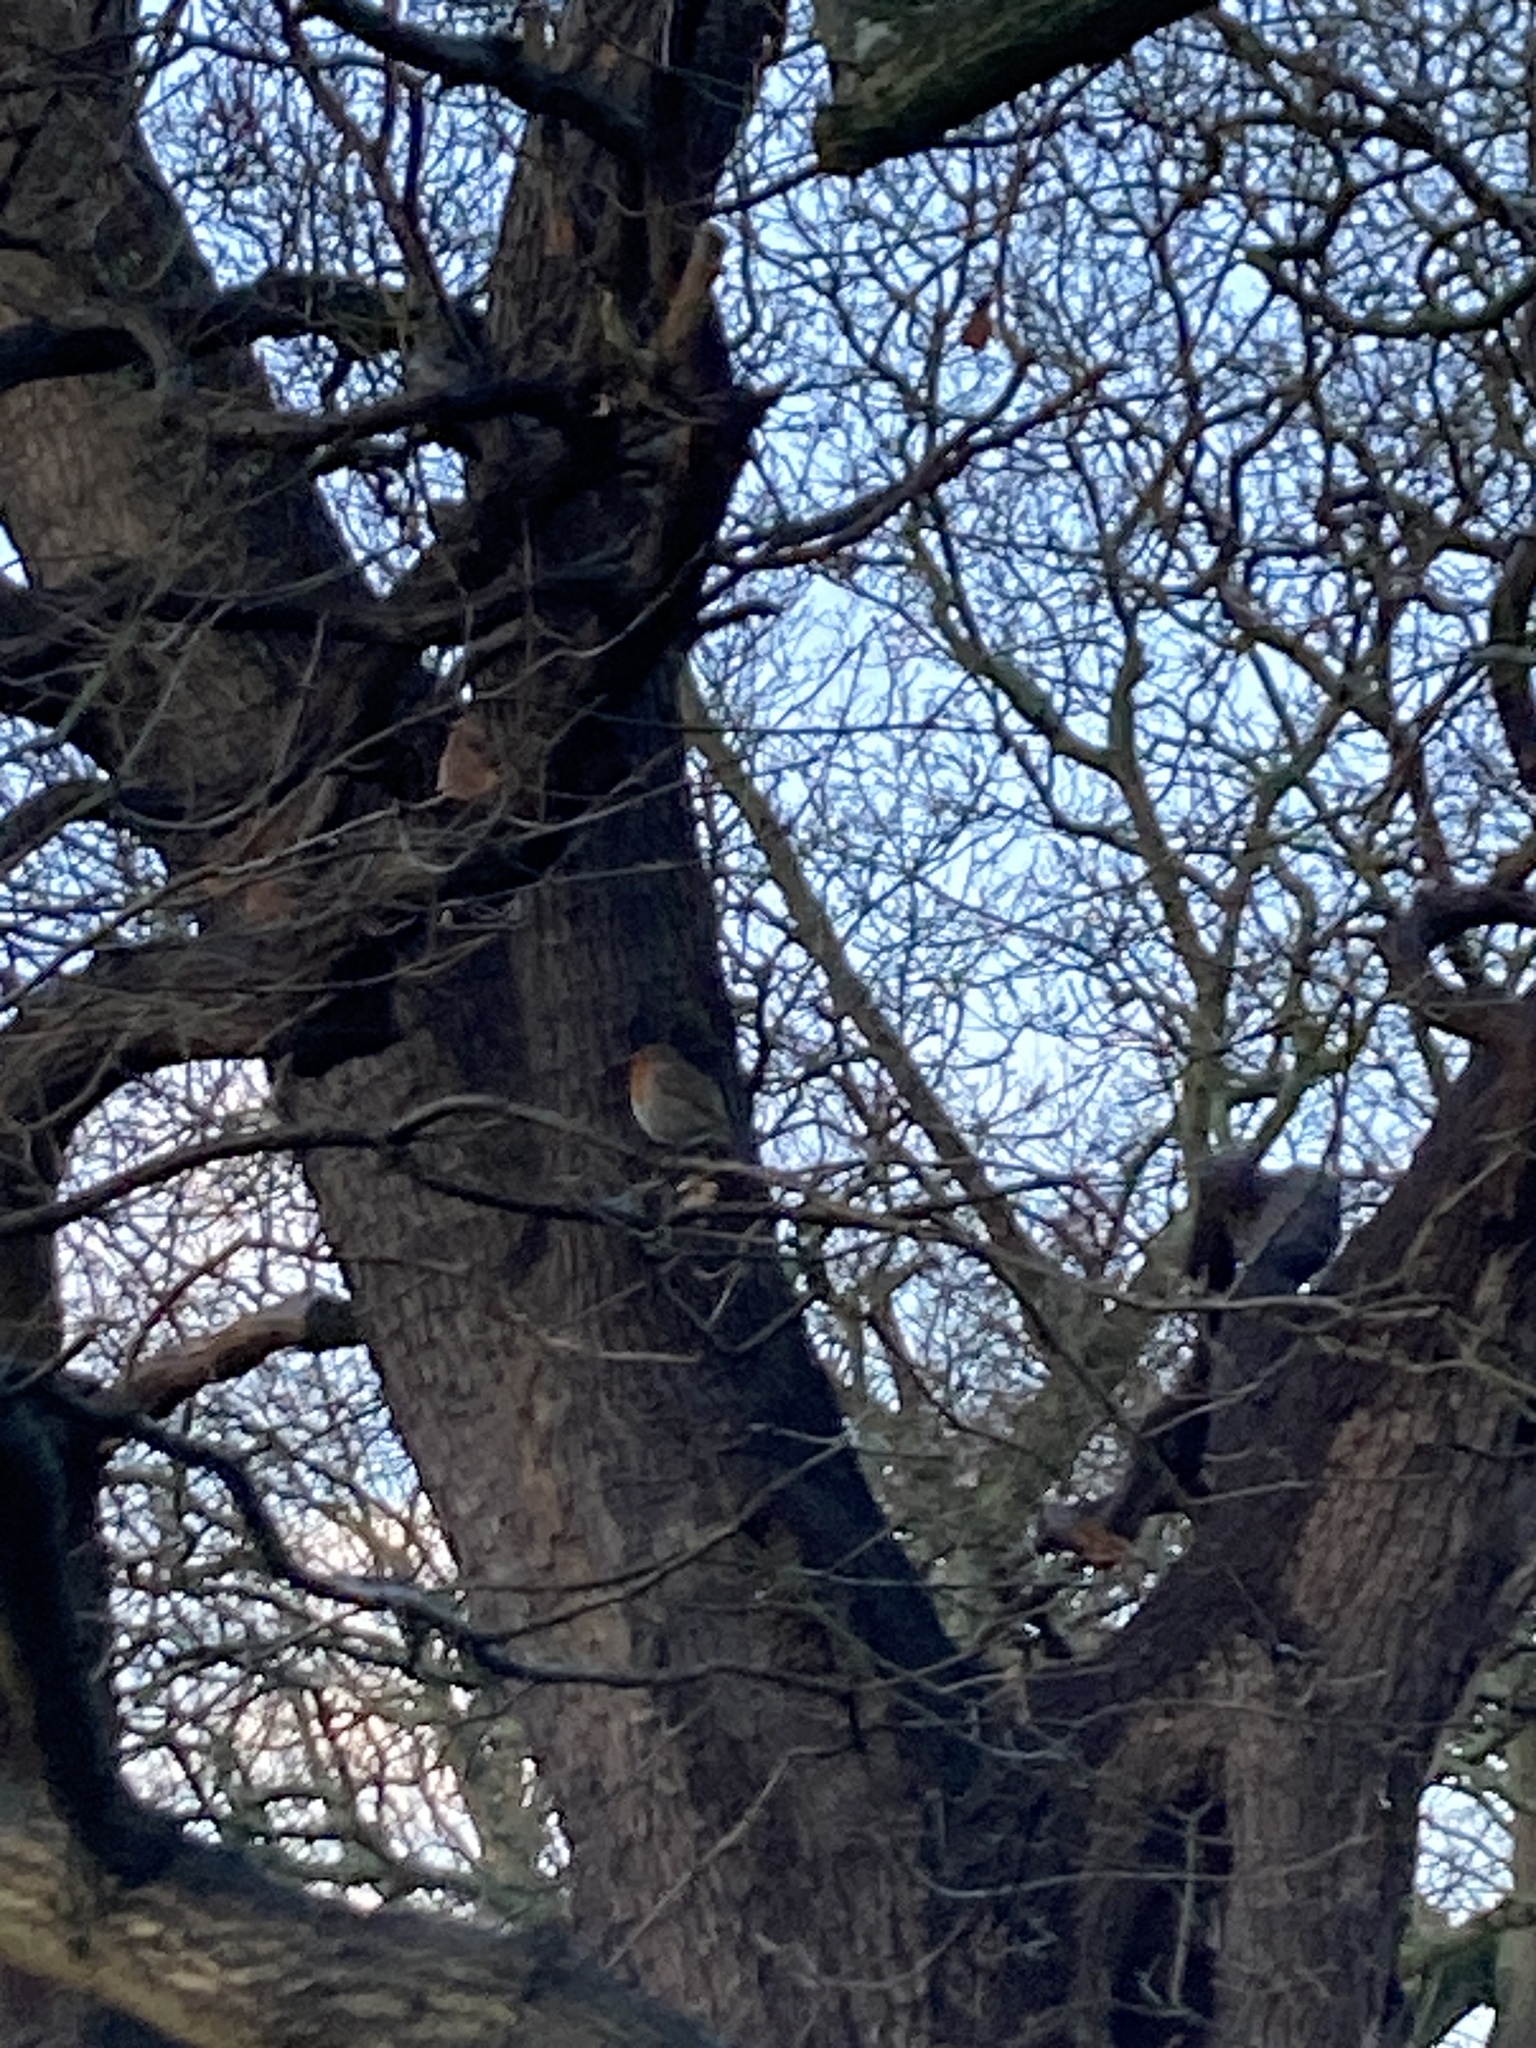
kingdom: Animalia
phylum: Chordata
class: Aves
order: Passeriformes
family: Muscicapidae
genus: Erithacus
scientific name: Erithacus rubecula
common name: European robin
